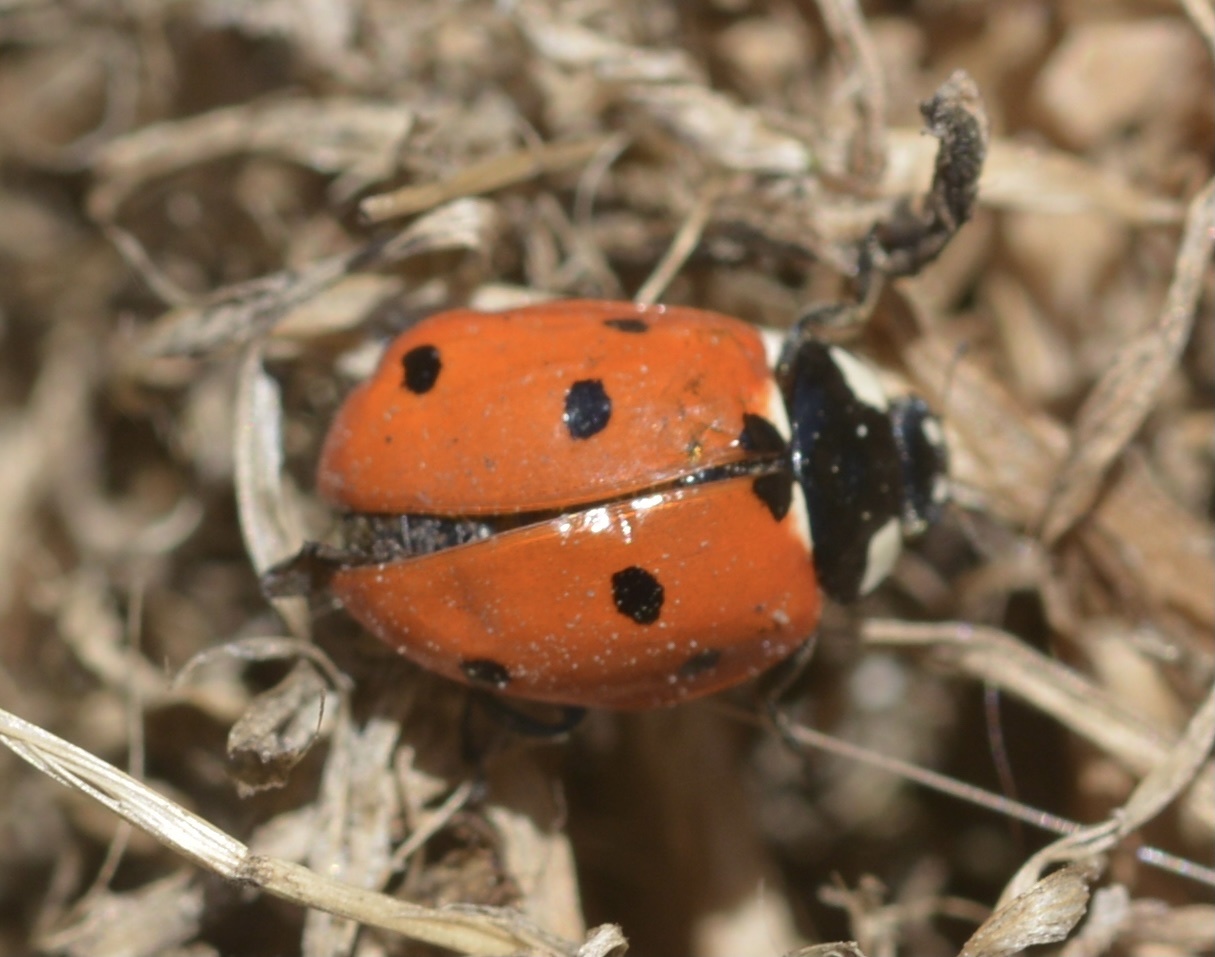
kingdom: Animalia
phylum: Arthropoda
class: Insecta
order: Coleoptera
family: Coccinellidae
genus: Coccinella
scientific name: Coccinella septempunctata
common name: Sevenspotted lady beetle
